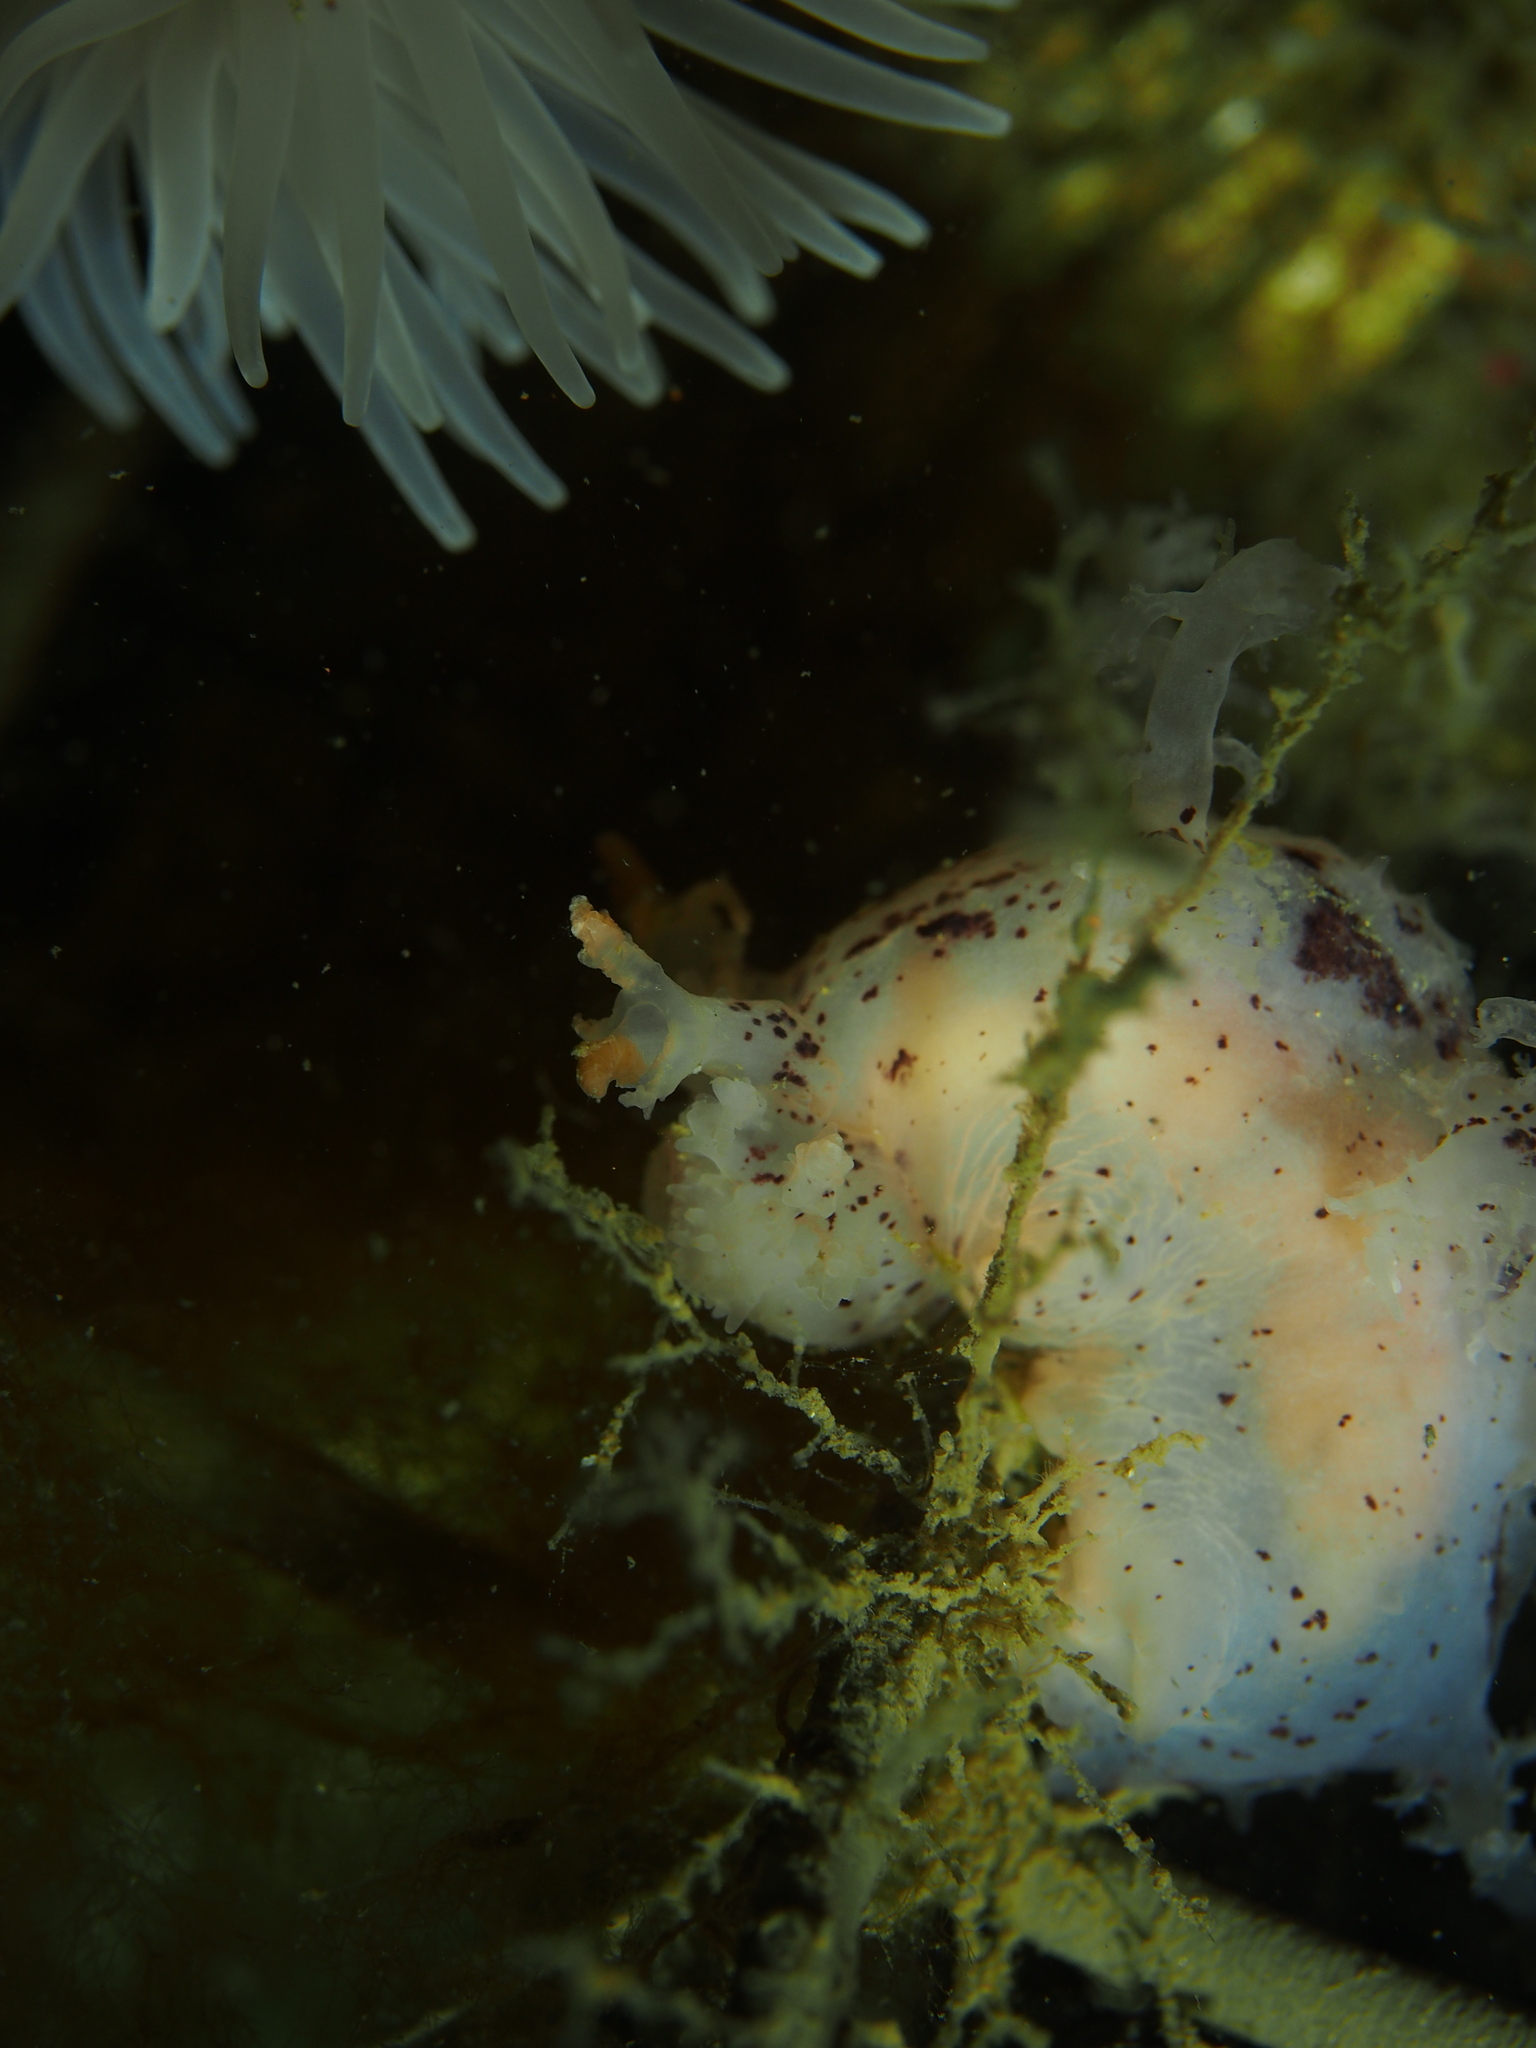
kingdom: Animalia
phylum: Mollusca
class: Gastropoda
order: Nudibranchia
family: Dendronotidae
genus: Dendronotus
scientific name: Dendronotus lacteus
